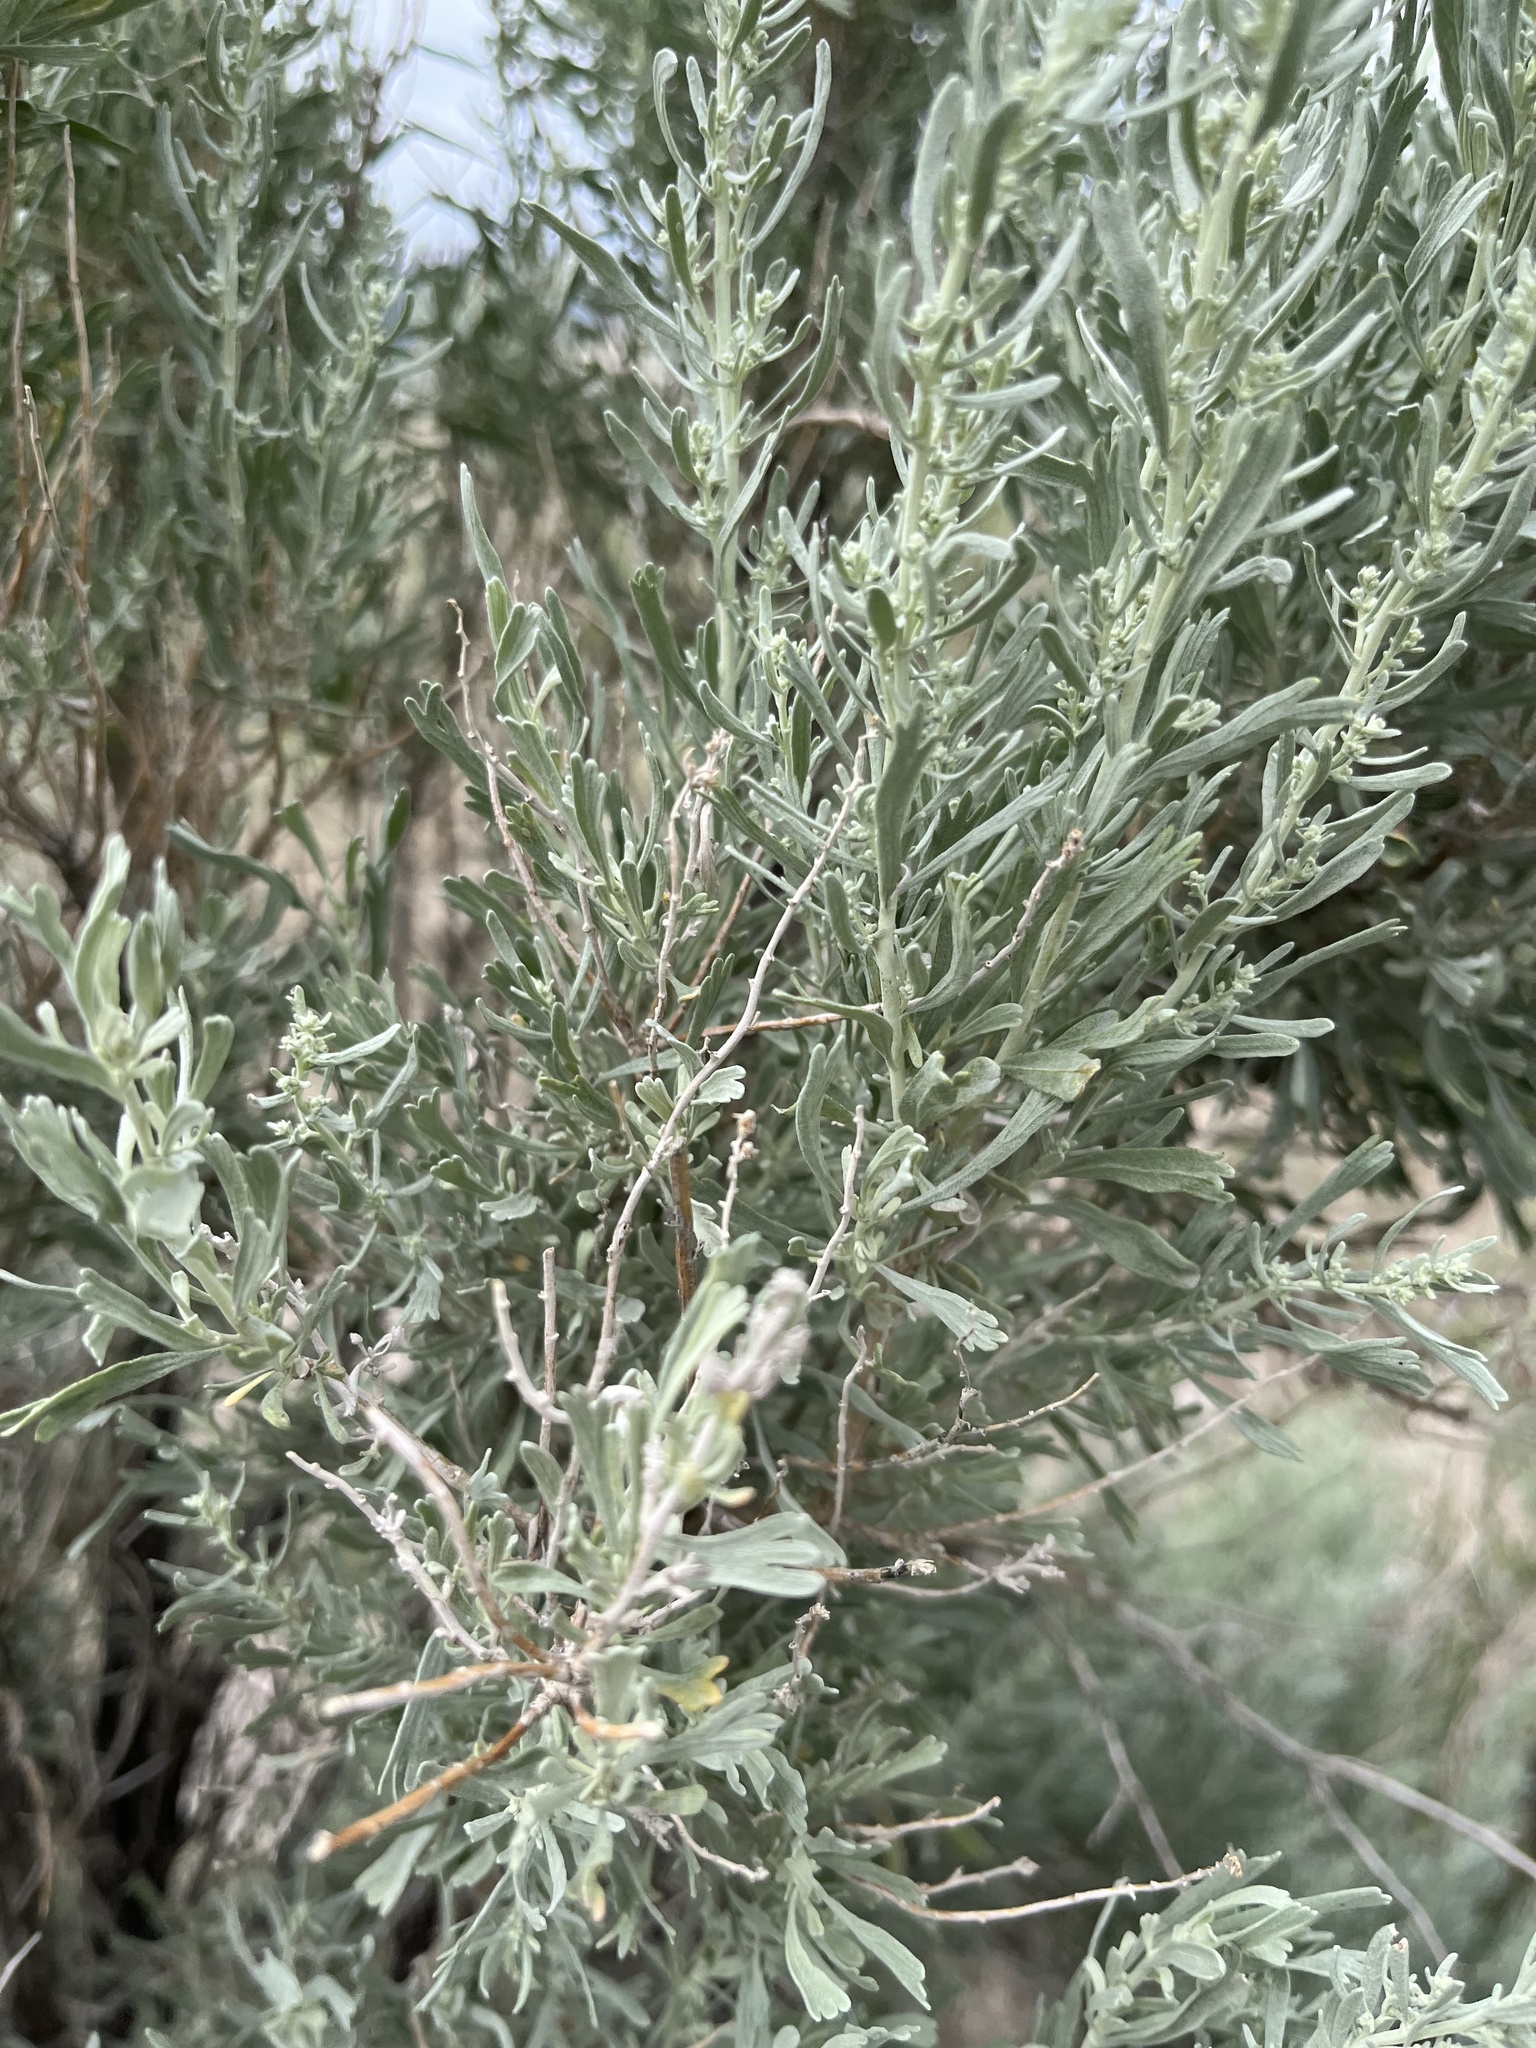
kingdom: Plantae
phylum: Tracheophyta
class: Magnoliopsida
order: Asterales
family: Asteraceae
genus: Artemisia
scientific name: Artemisia tridentata
